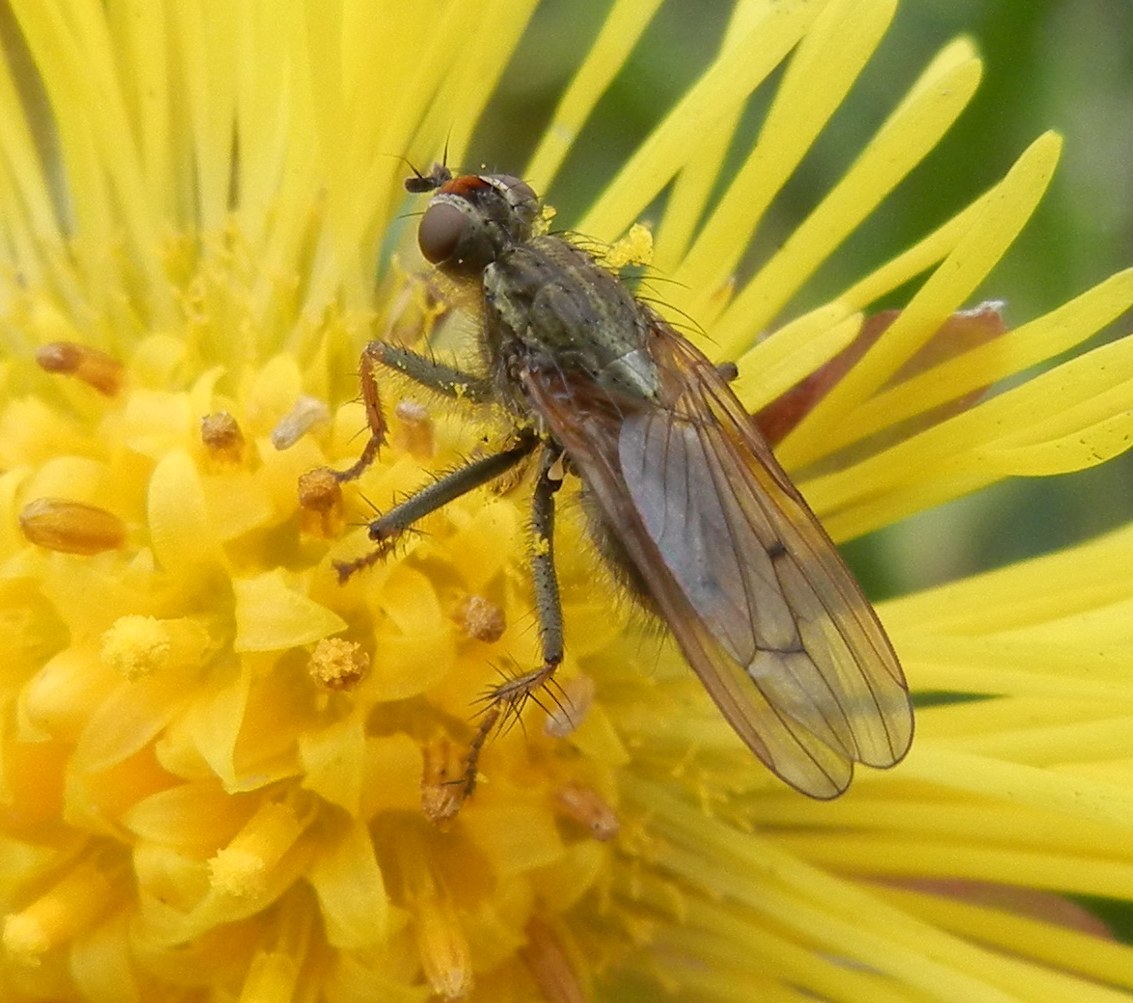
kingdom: Animalia
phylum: Arthropoda
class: Insecta
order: Diptera
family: Scathophagidae
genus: Scathophaga
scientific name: Scathophaga stercoraria
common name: Yellow dung fly
